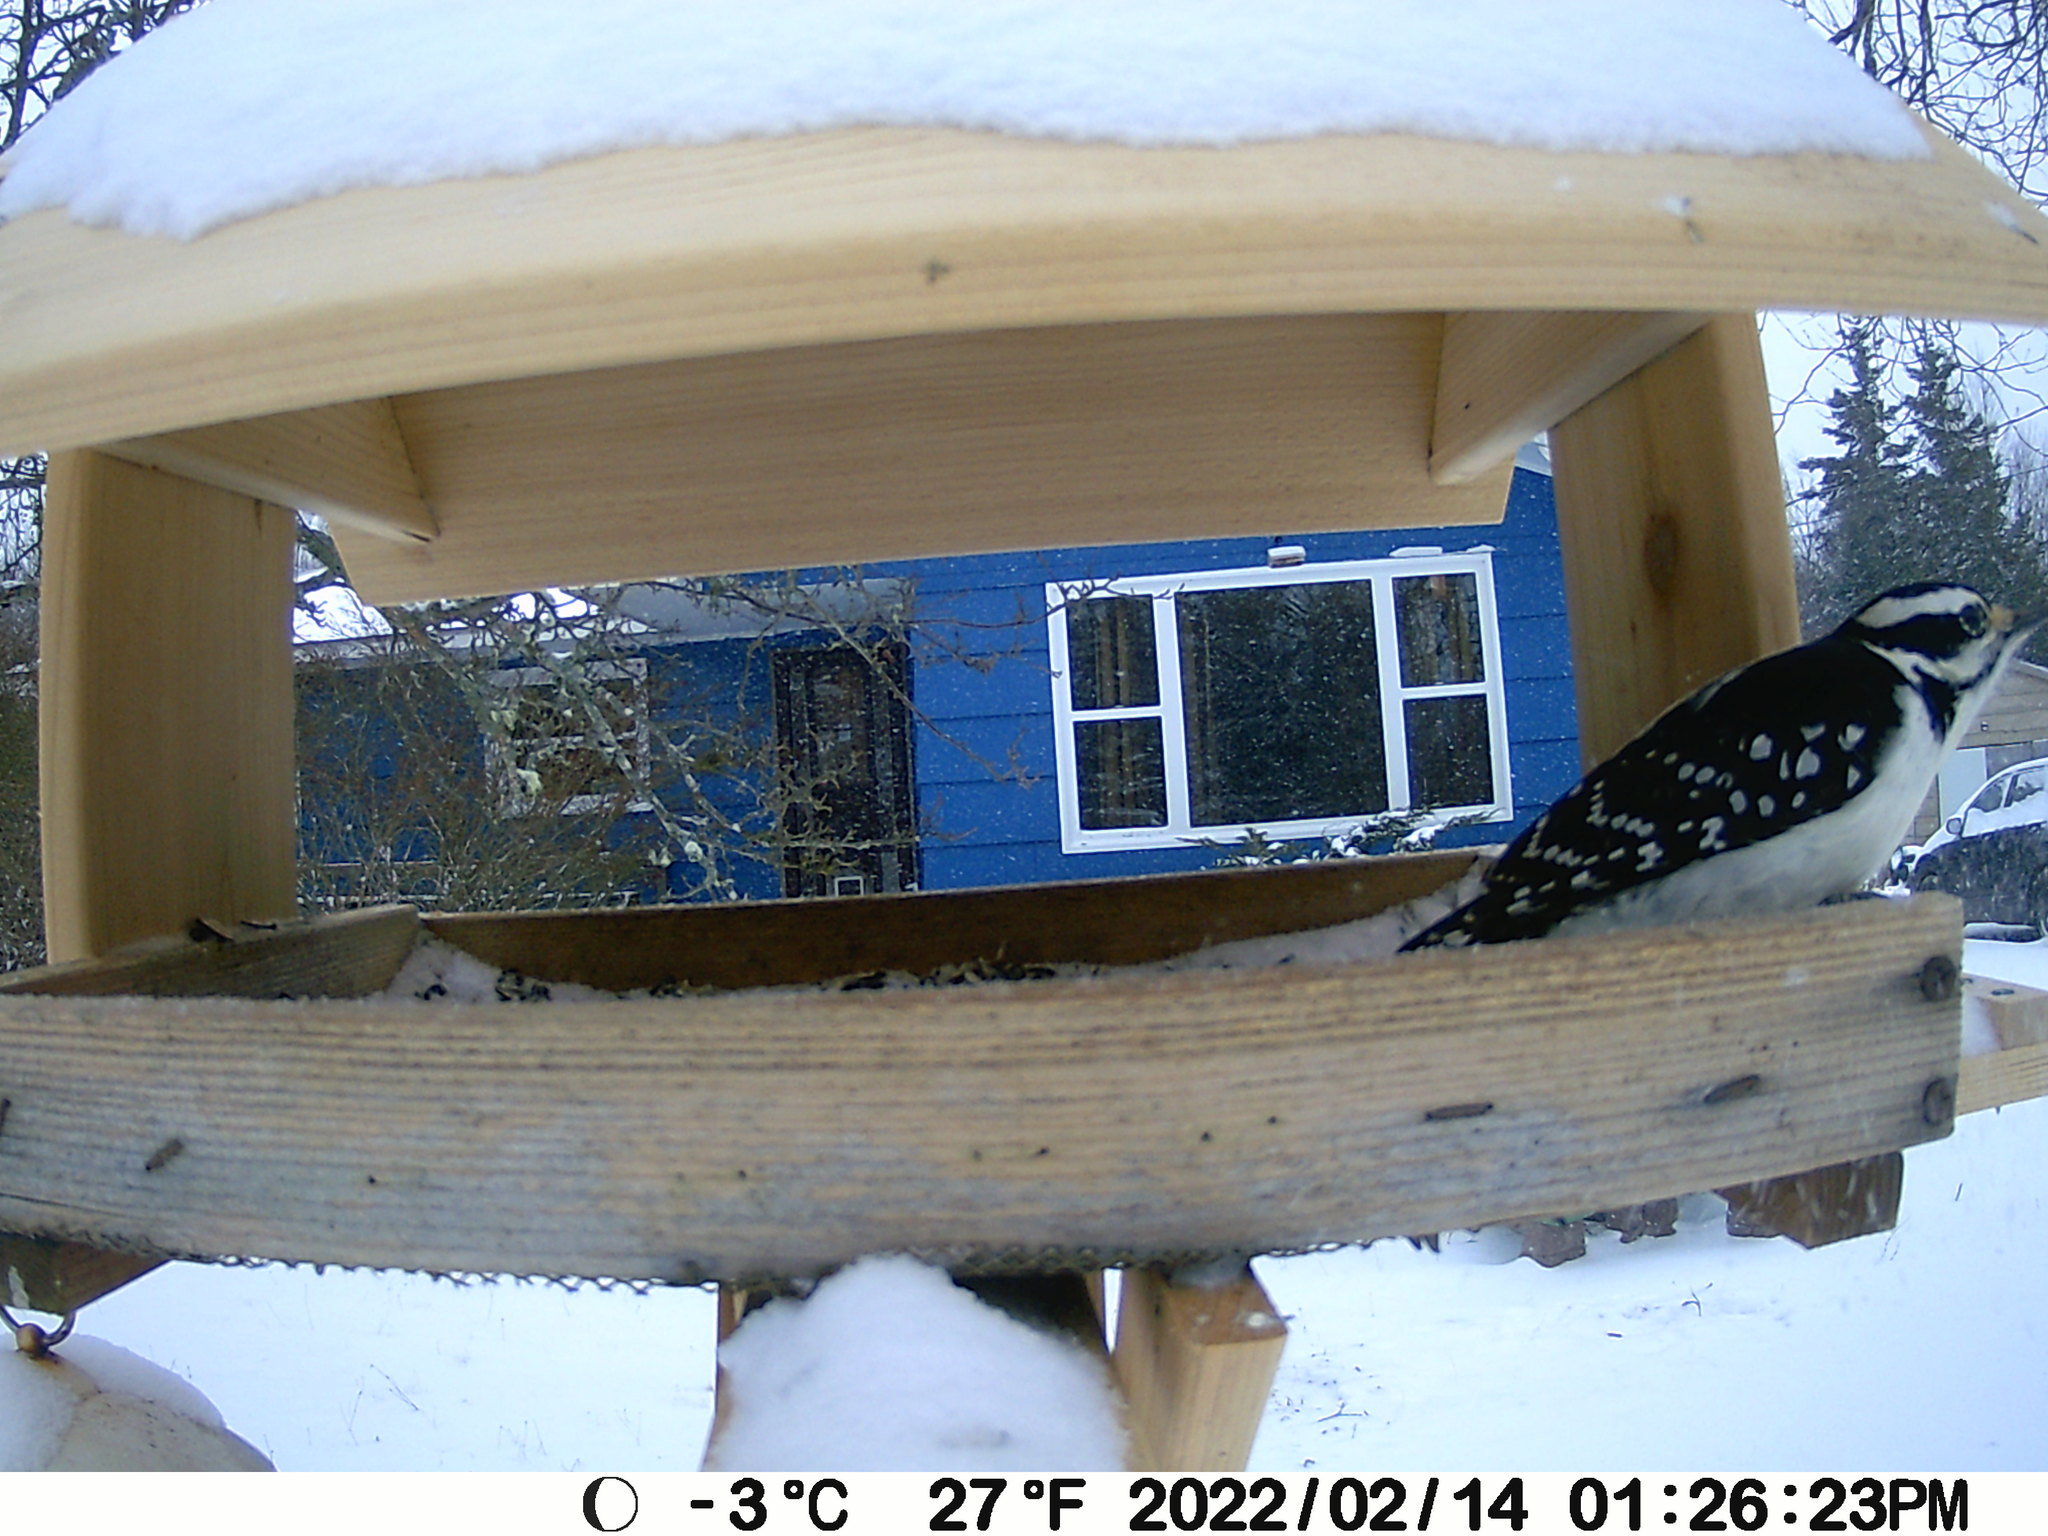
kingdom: Animalia
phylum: Chordata
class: Aves
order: Piciformes
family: Picidae
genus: Leuconotopicus
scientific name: Leuconotopicus villosus
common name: Hairy woodpecker
